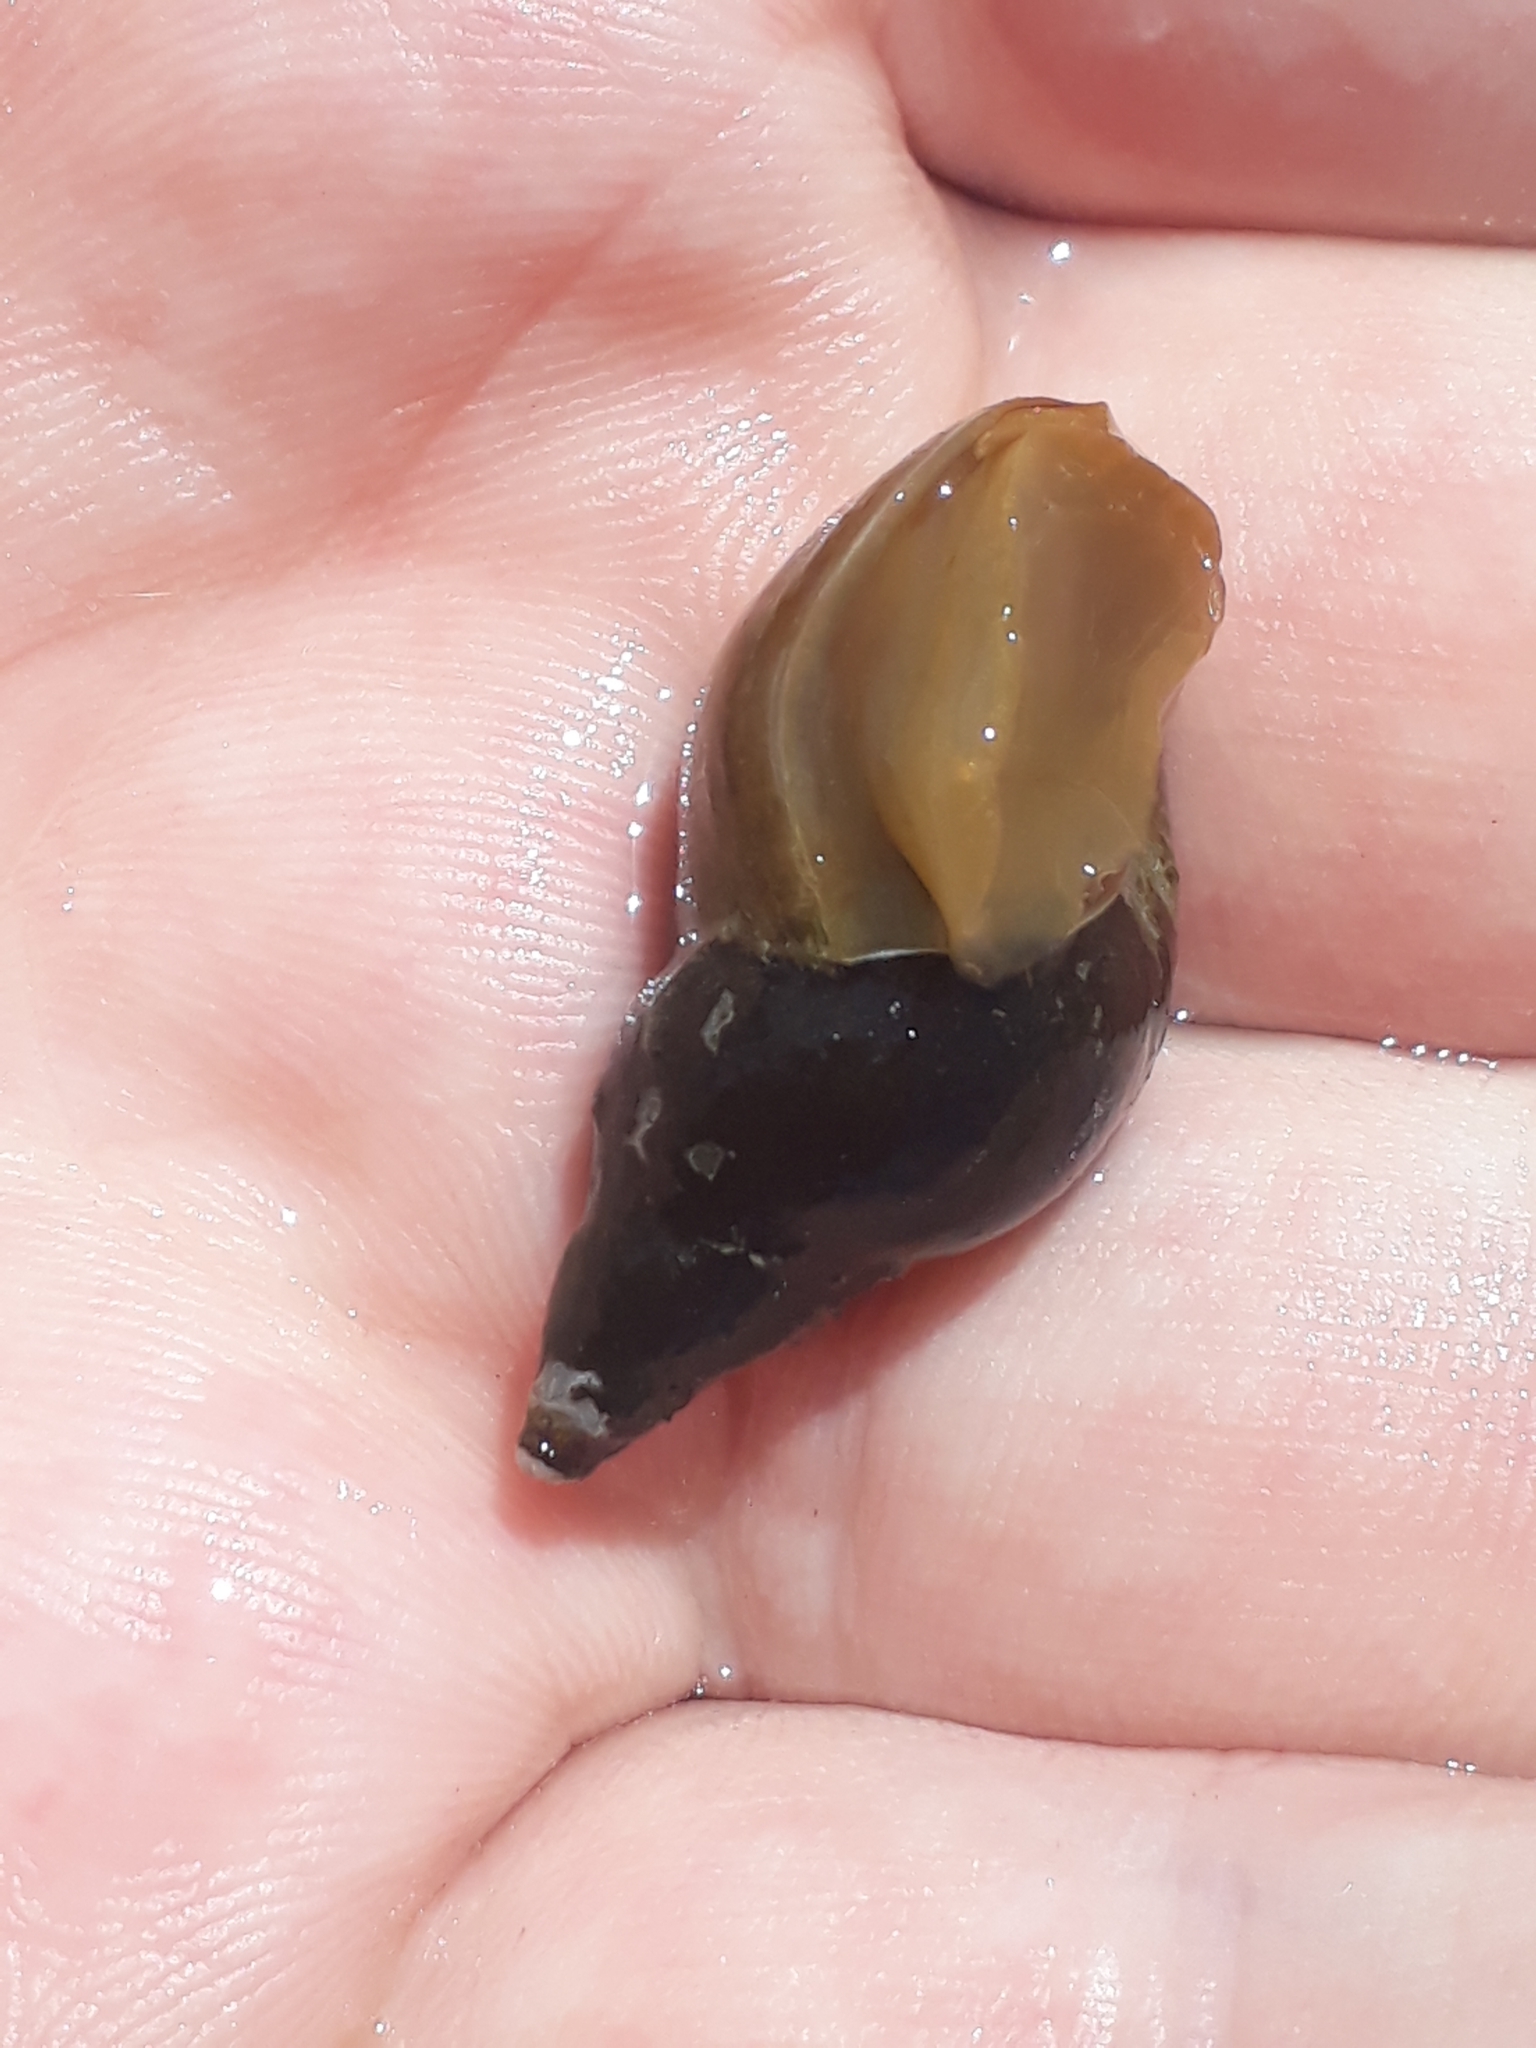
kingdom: Animalia
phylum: Mollusca
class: Gastropoda
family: Lymnaeidae
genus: Lymnaea
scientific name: Lymnaea stagnalis
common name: Great pond snail
